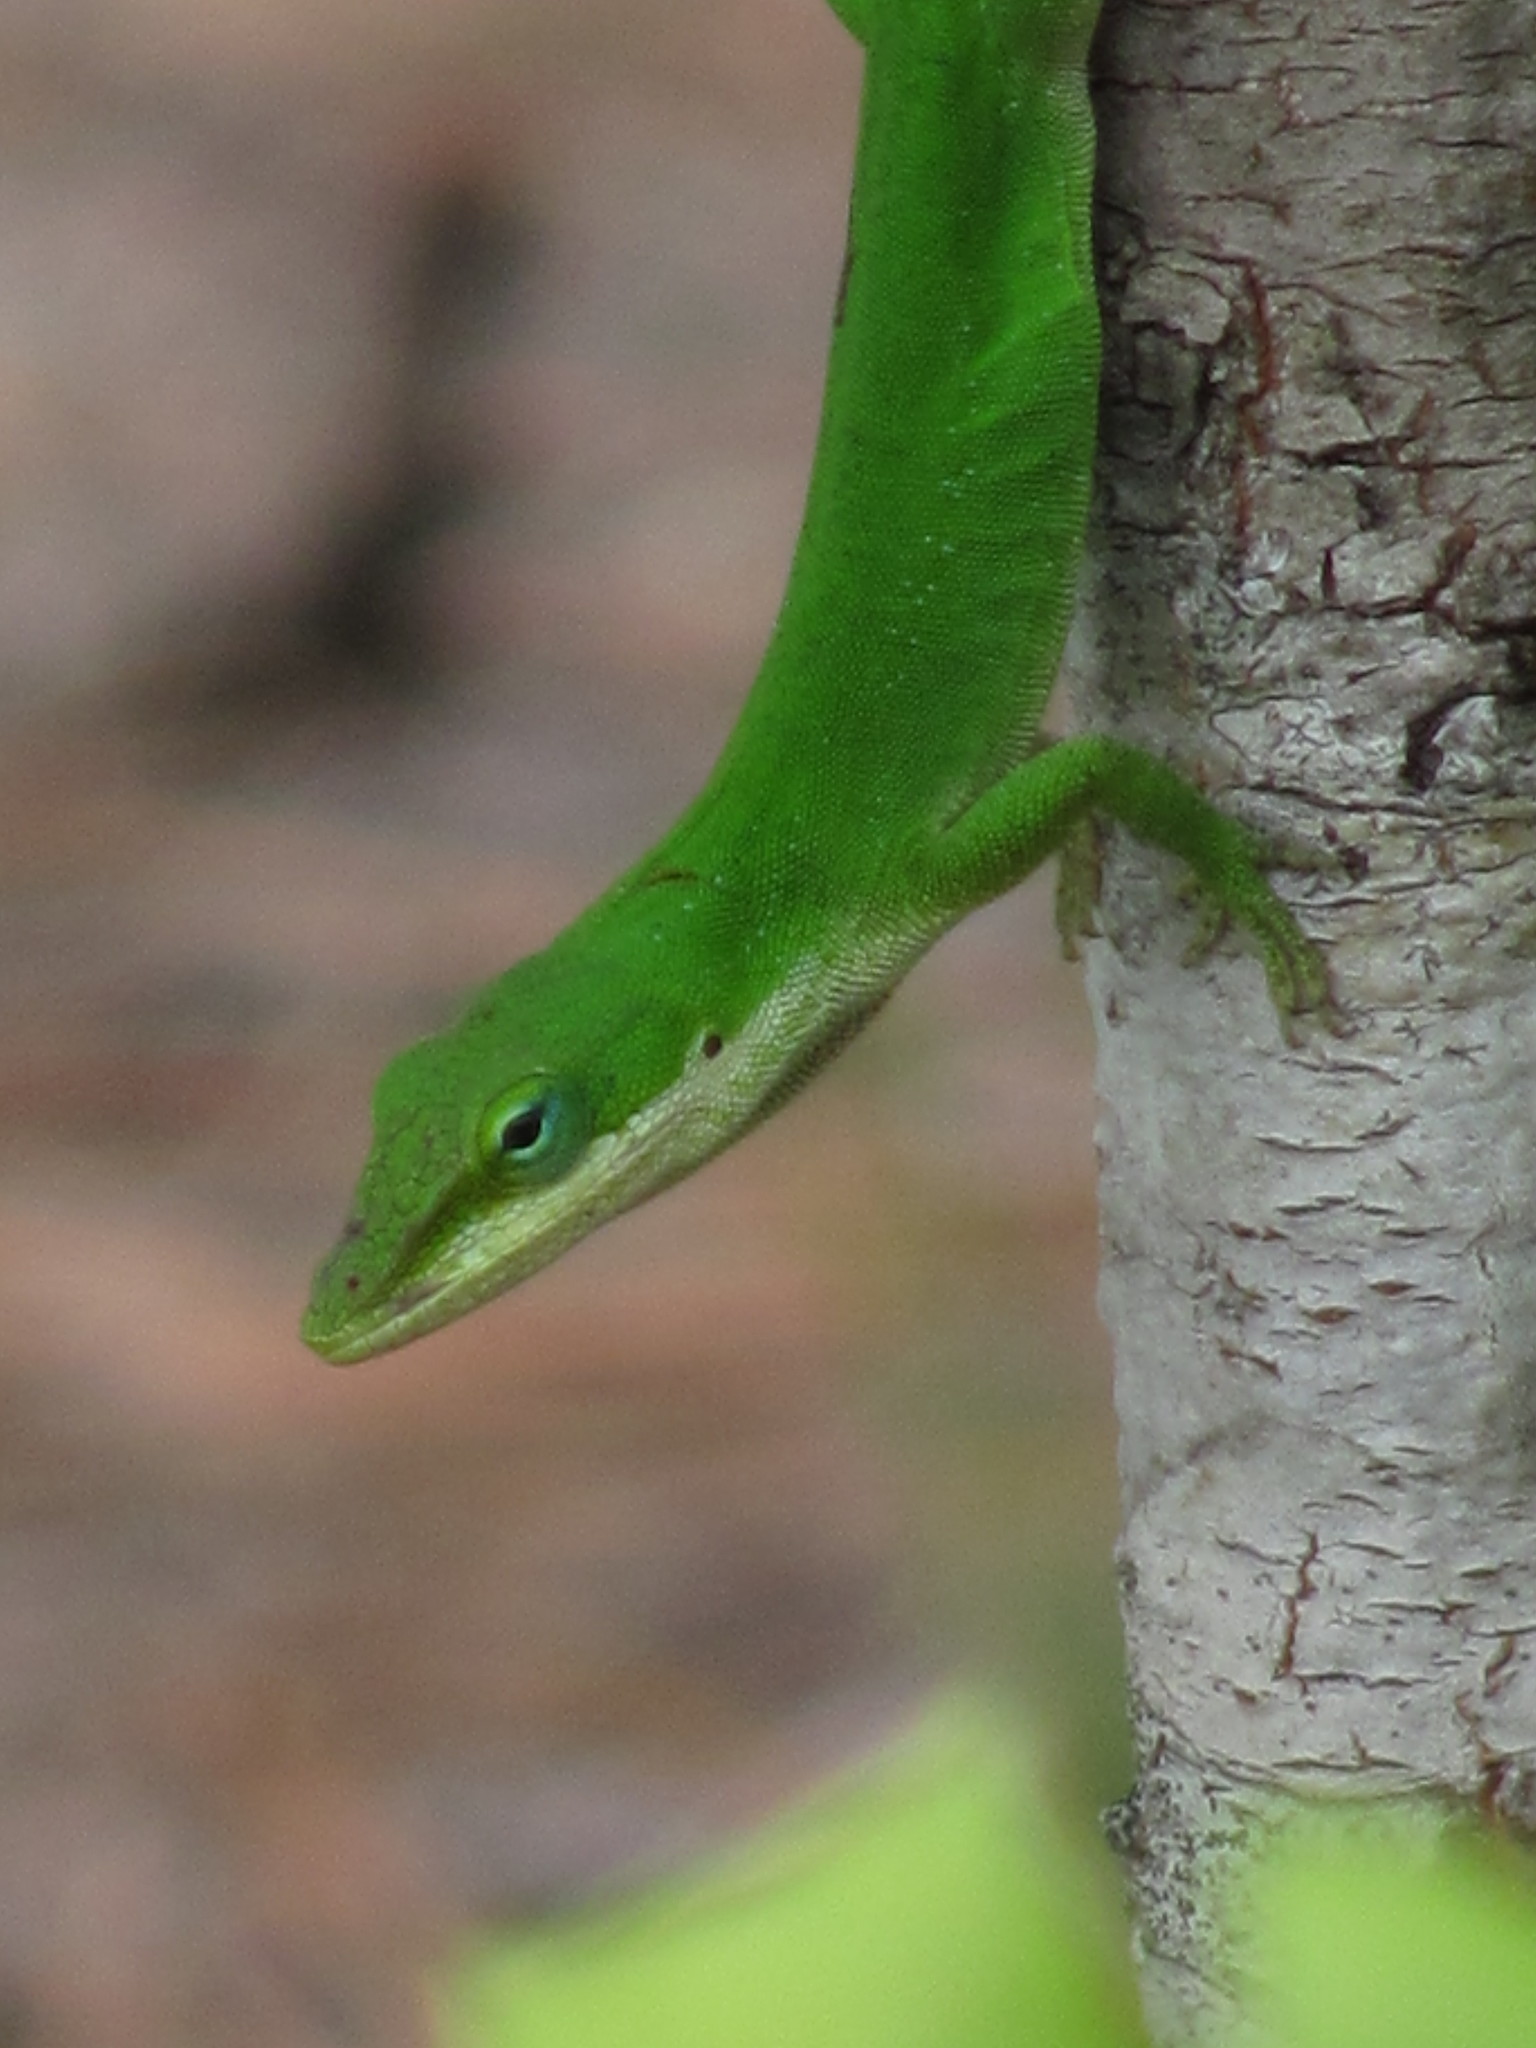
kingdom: Animalia
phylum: Chordata
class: Squamata
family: Dactyloidae
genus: Anolis
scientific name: Anolis carolinensis
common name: Green anole
